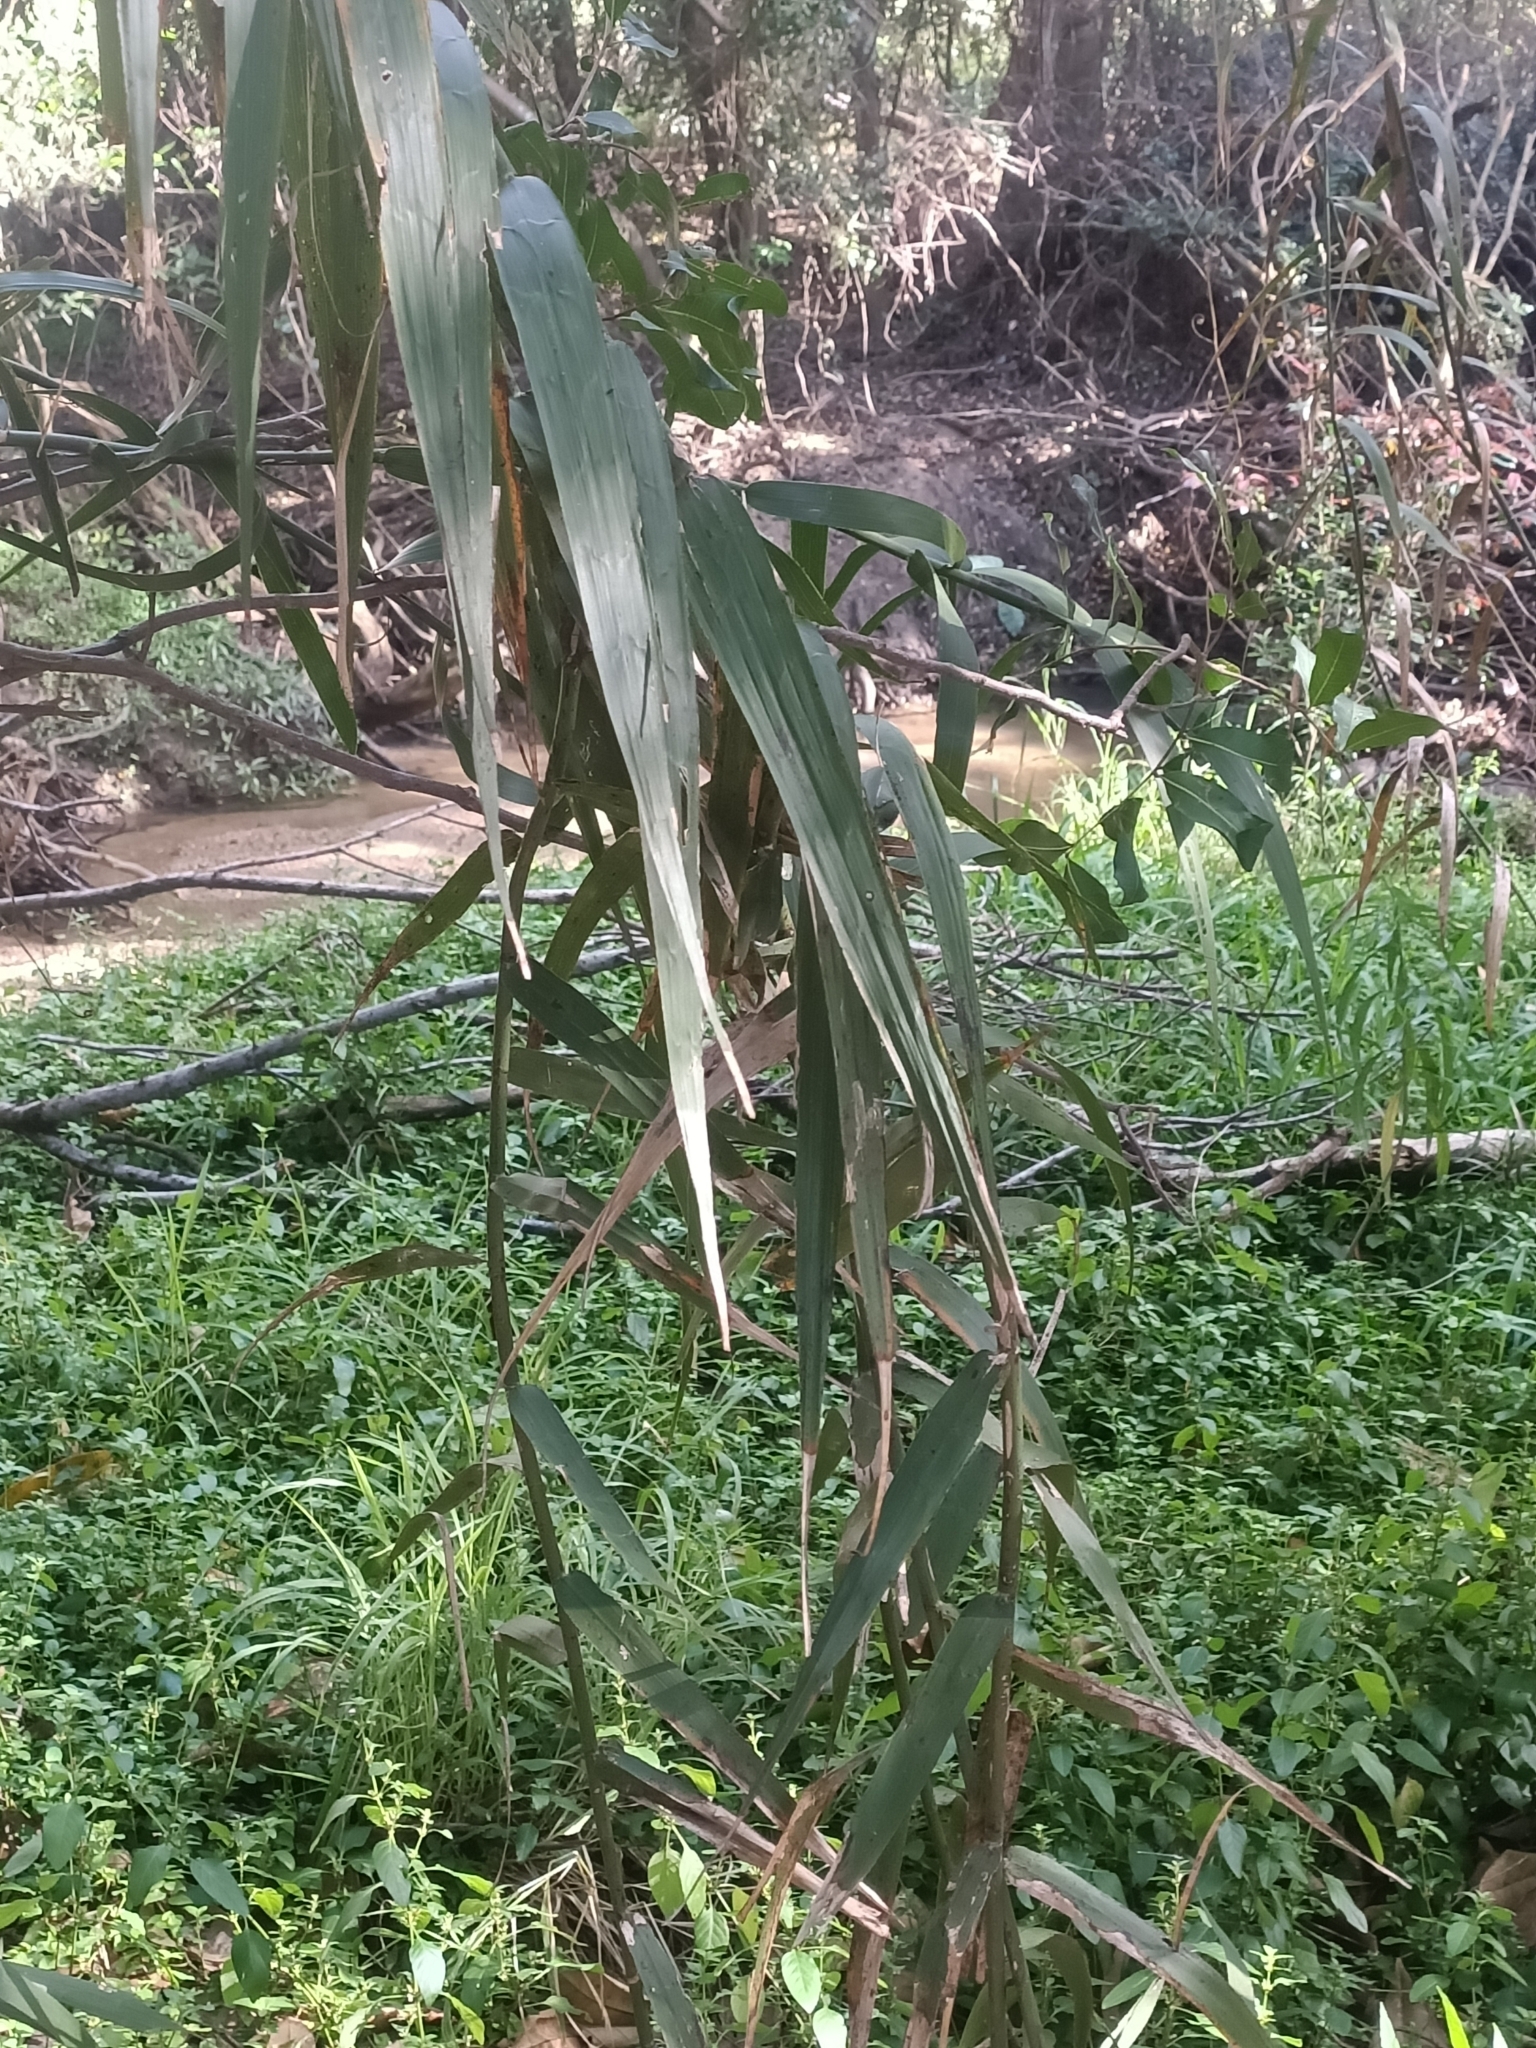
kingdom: Plantae
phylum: Tracheophyta
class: Liliopsida
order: Poales
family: Flagellariaceae
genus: Flagellaria
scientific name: Flagellaria indica
